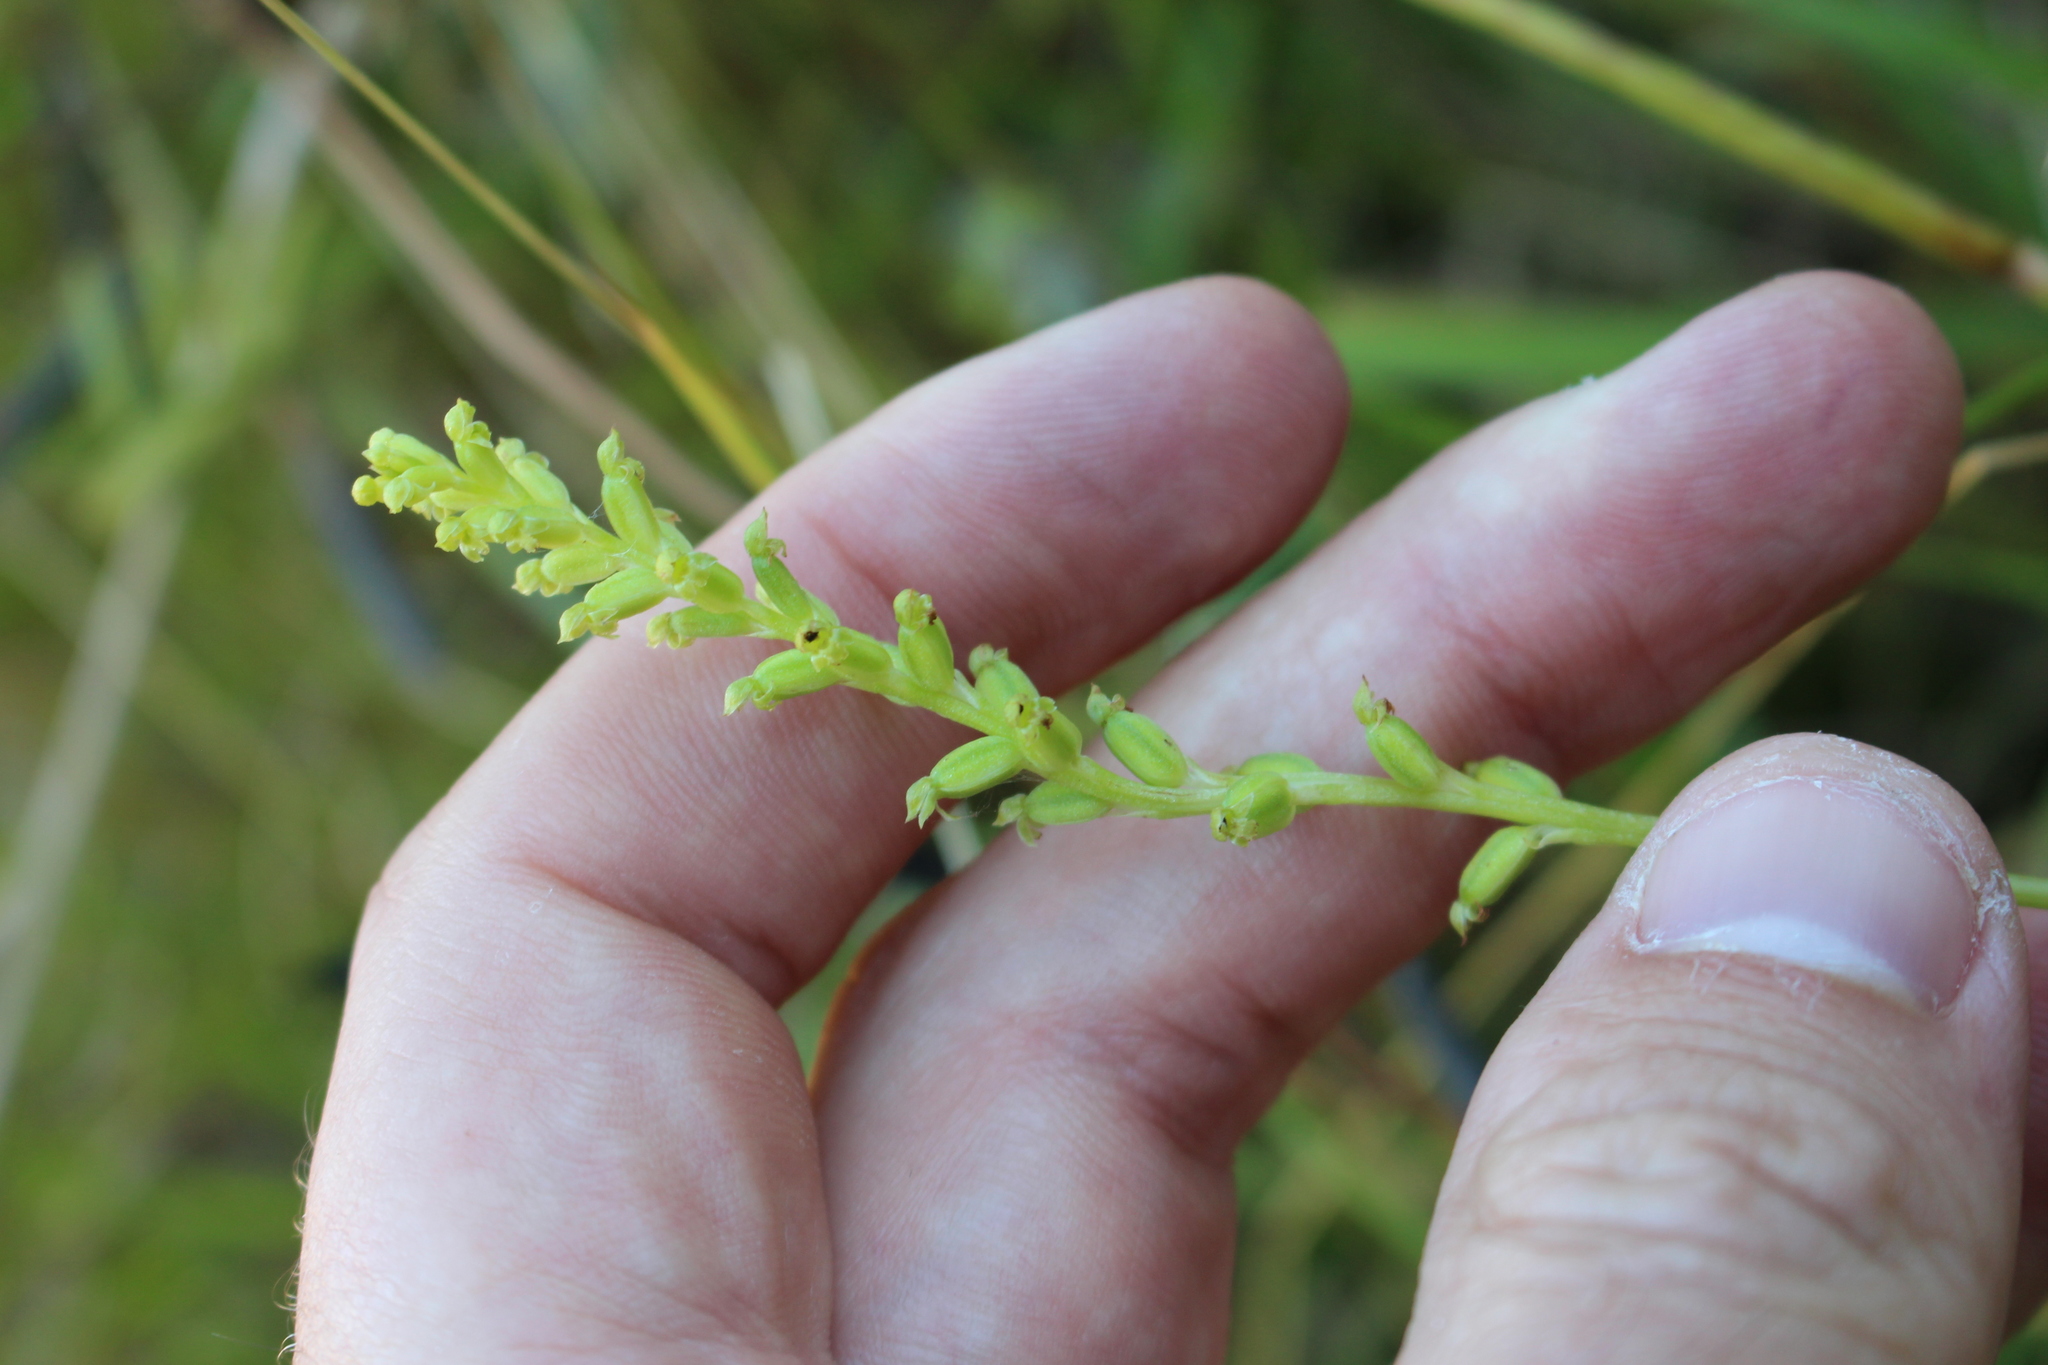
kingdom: Plantae
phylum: Tracheophyta
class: Liliopsida
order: Asparagales
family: Orchidaceae
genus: Microtis
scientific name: Microtis unifolia
